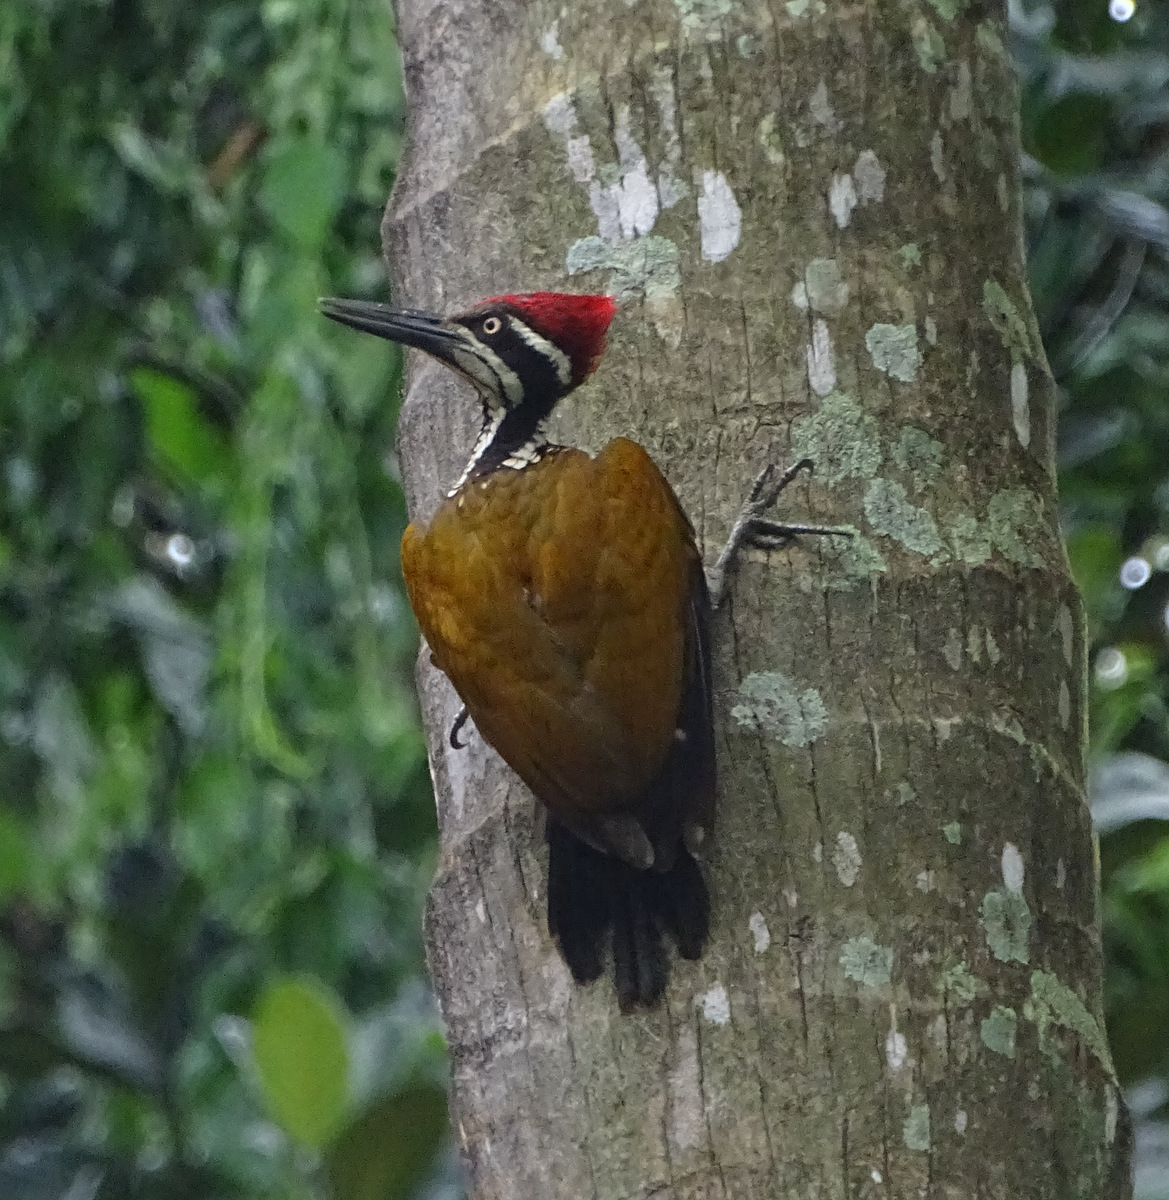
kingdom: Animalia
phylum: Chordata
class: Aves
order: Piciformes
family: Picidae
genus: Chrysocolaptes
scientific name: Chrysocolaptes socialis
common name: Malabar flameback
